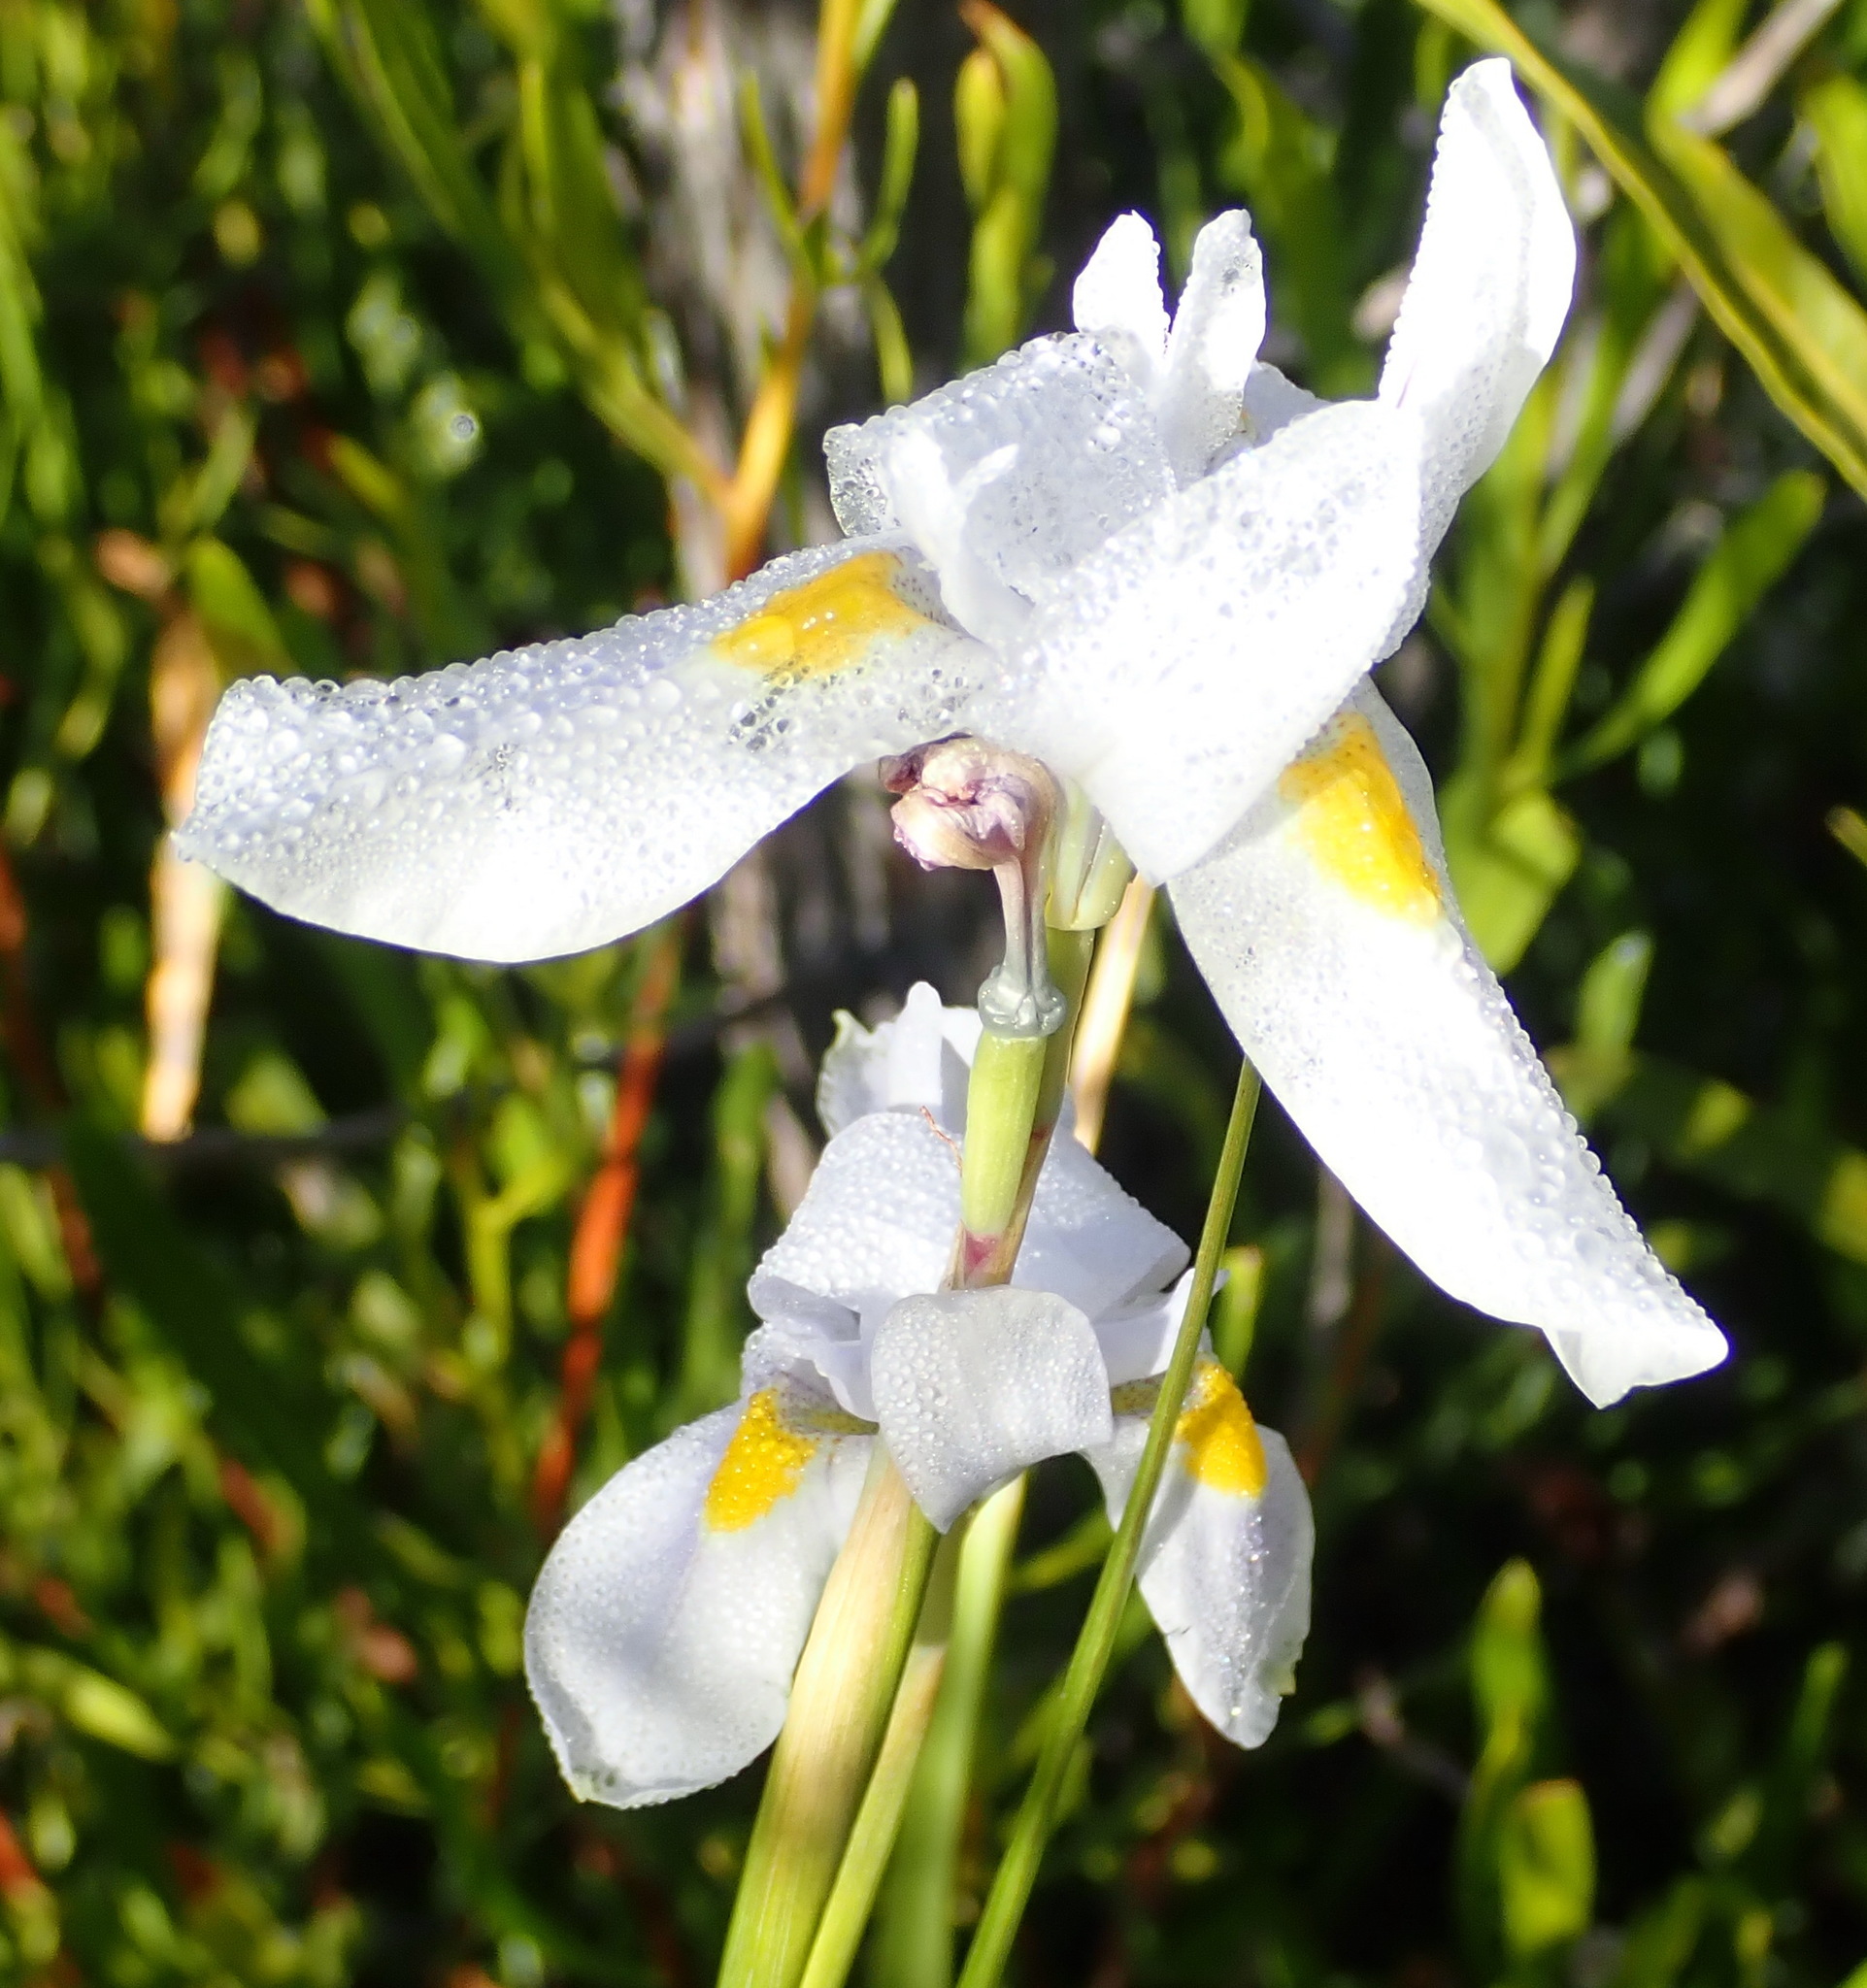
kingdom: Plantae
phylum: Tracheophyta
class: Liliopsida
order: Asparagales
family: Iridaceae
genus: Moraea
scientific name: Moraea polystachya
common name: Blue-tulip
